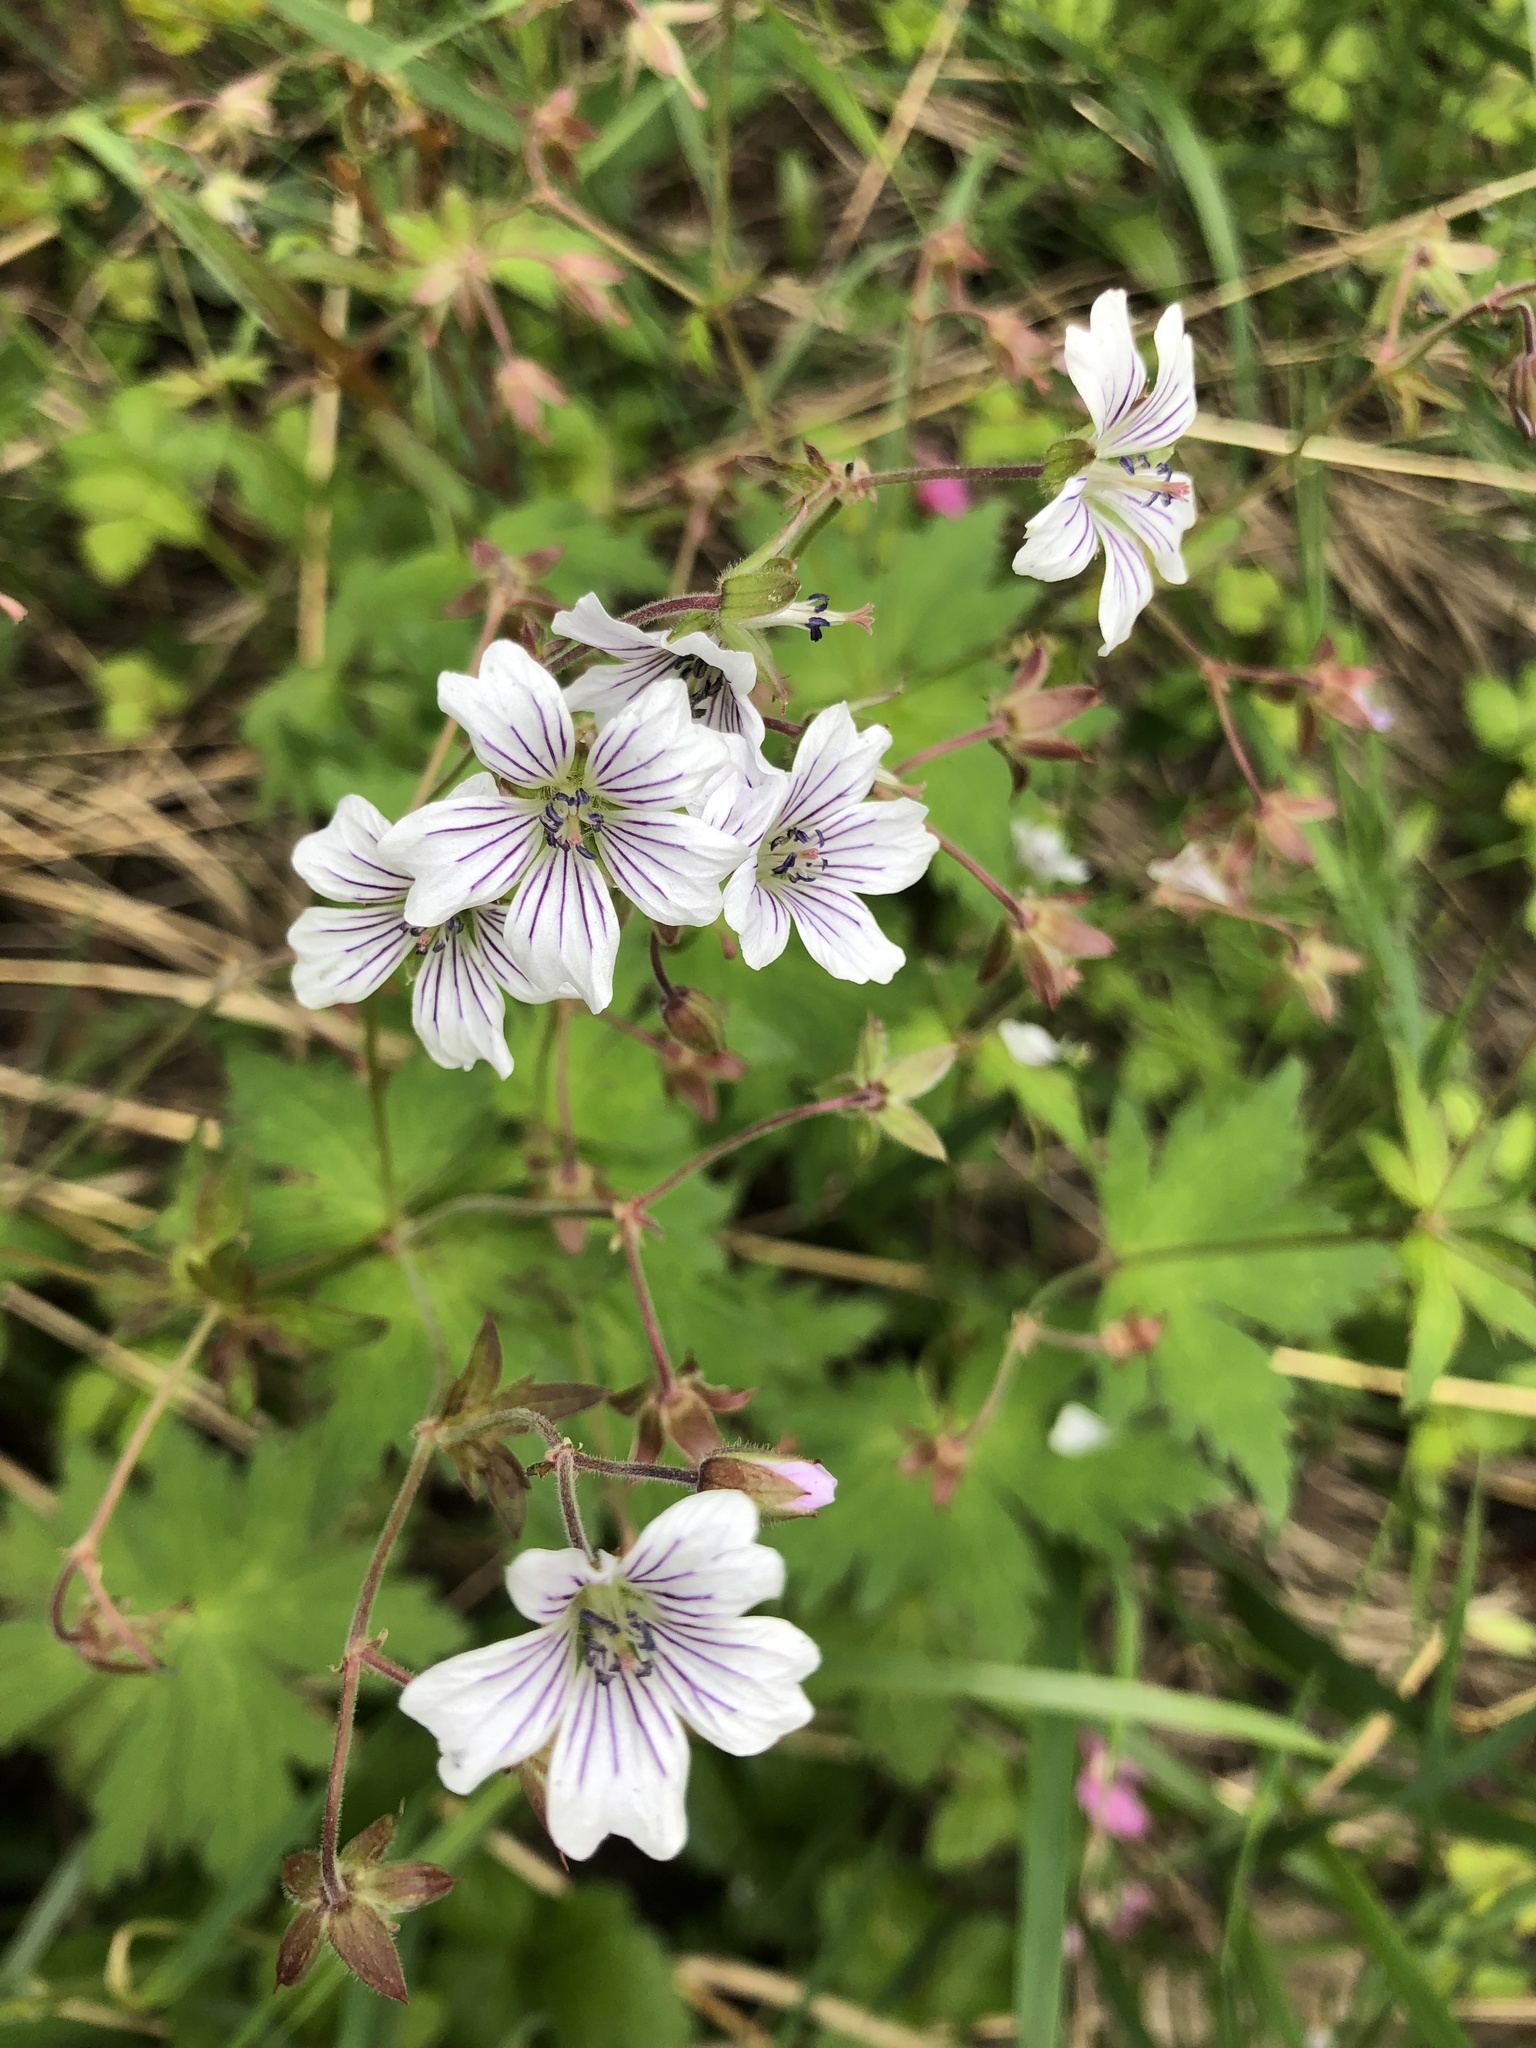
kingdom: Plantae
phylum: Tracheophyta
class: Magnoliopsida
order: Geraniales
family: Geraniaceae
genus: Geranium
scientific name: Geranium sylvaticum
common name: Wood crane's-bill
